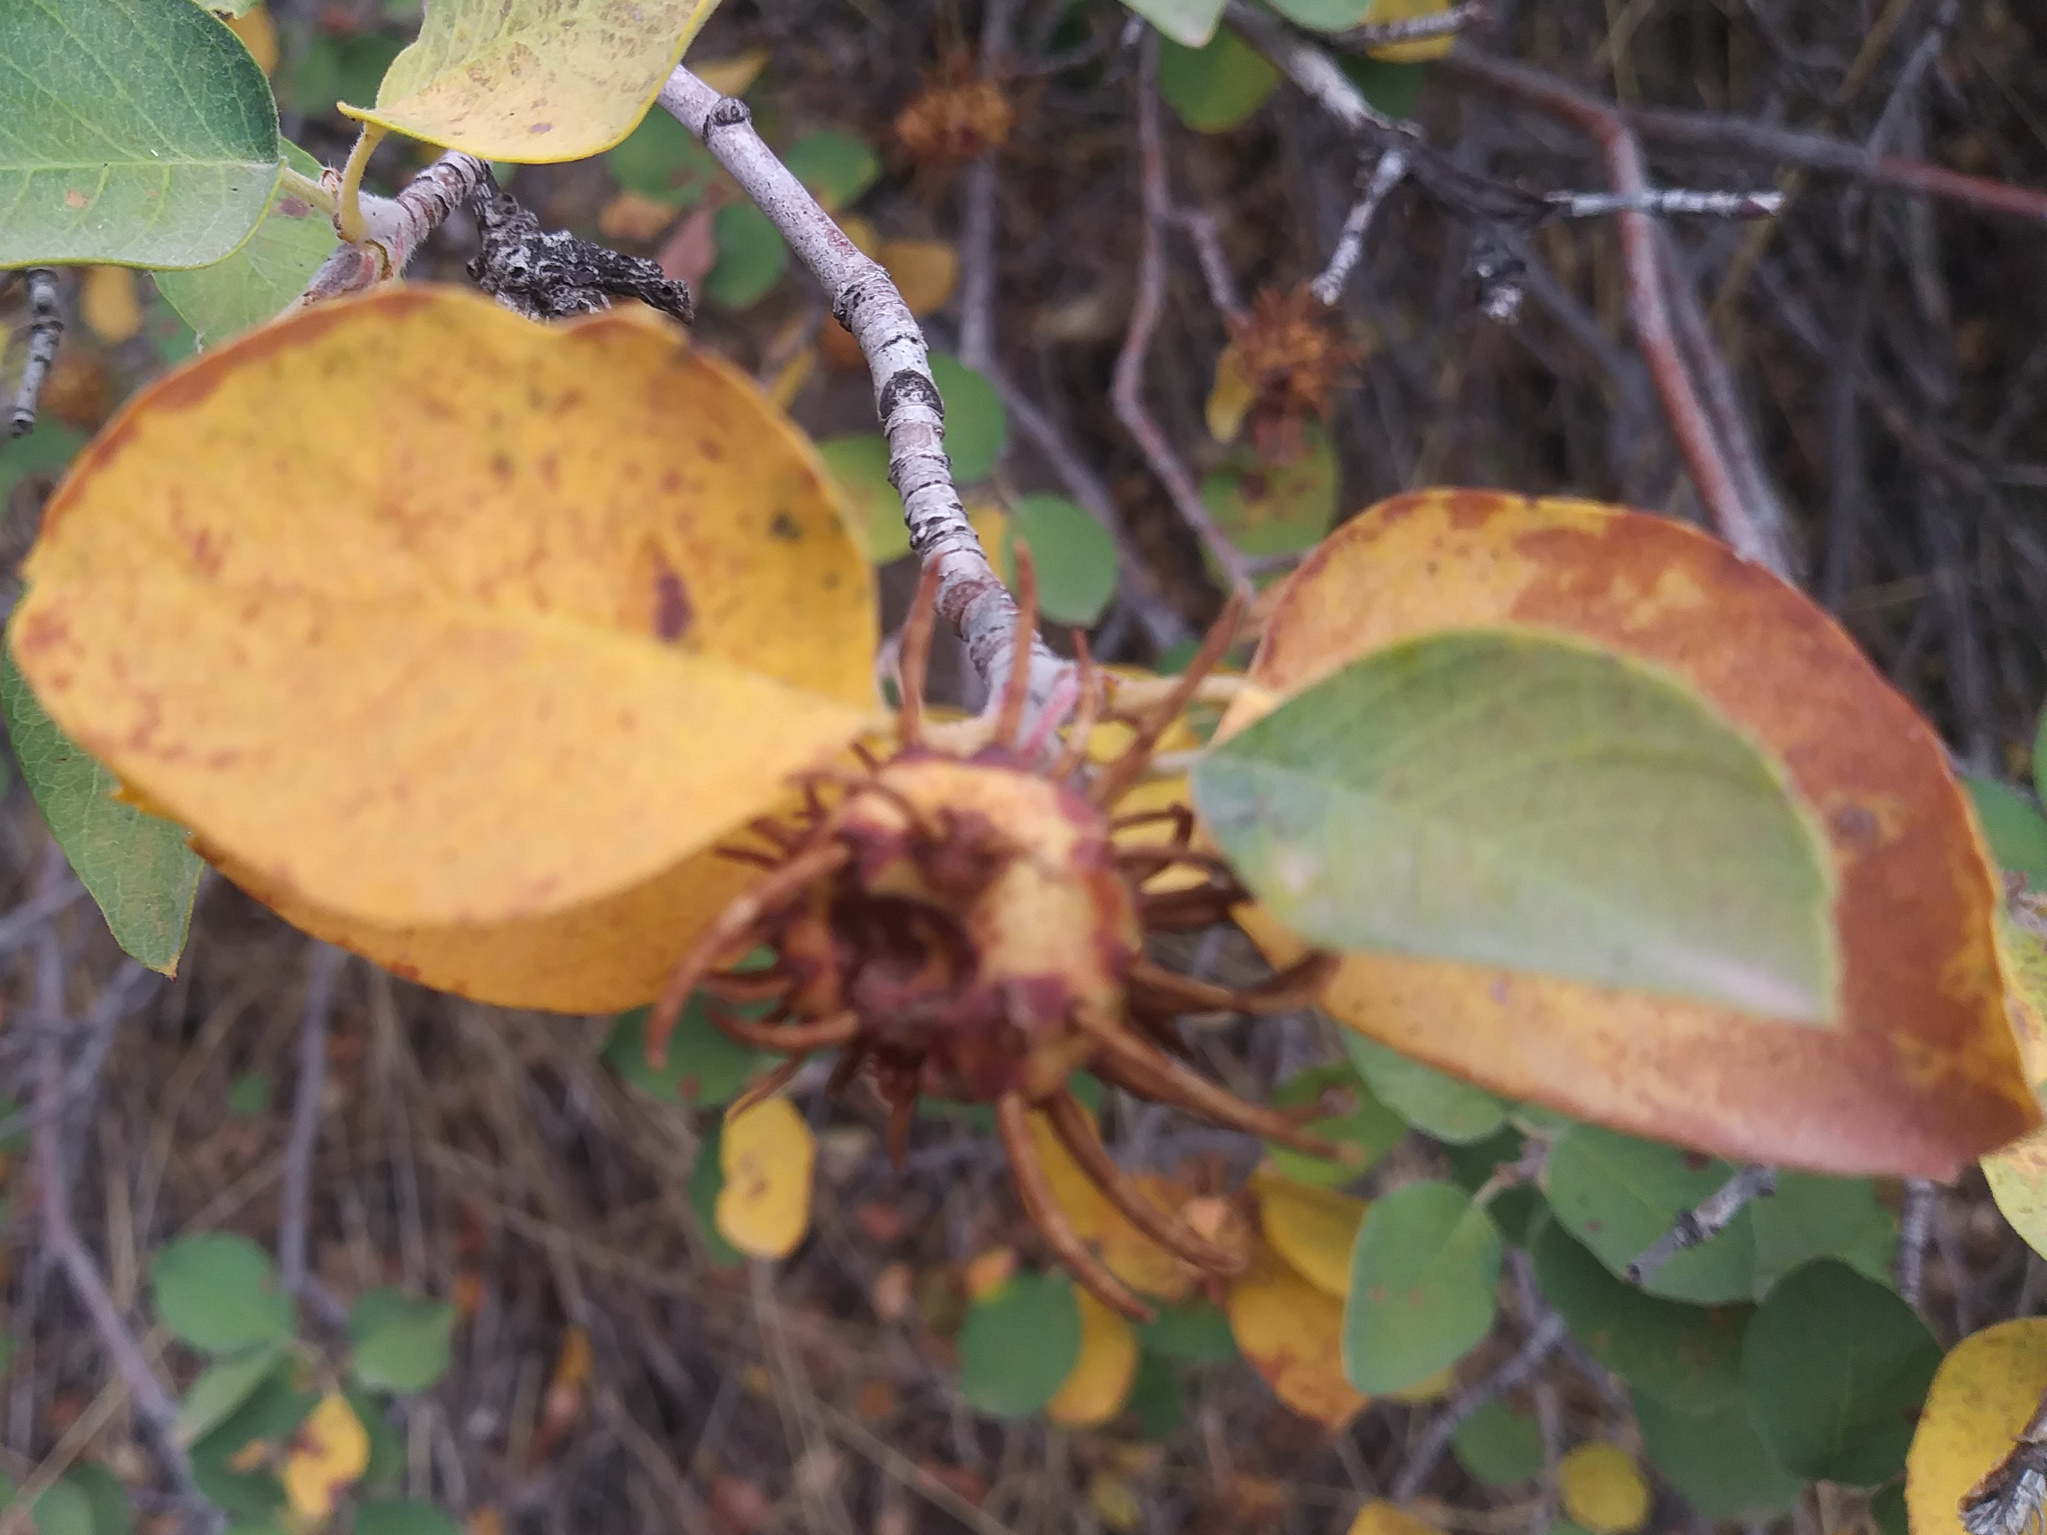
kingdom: Plantae
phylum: Tracheophyta
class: Magnoliopsida
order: Rosales
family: Rosaceae
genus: Amelanchier
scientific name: Amelanchier alnifolia
